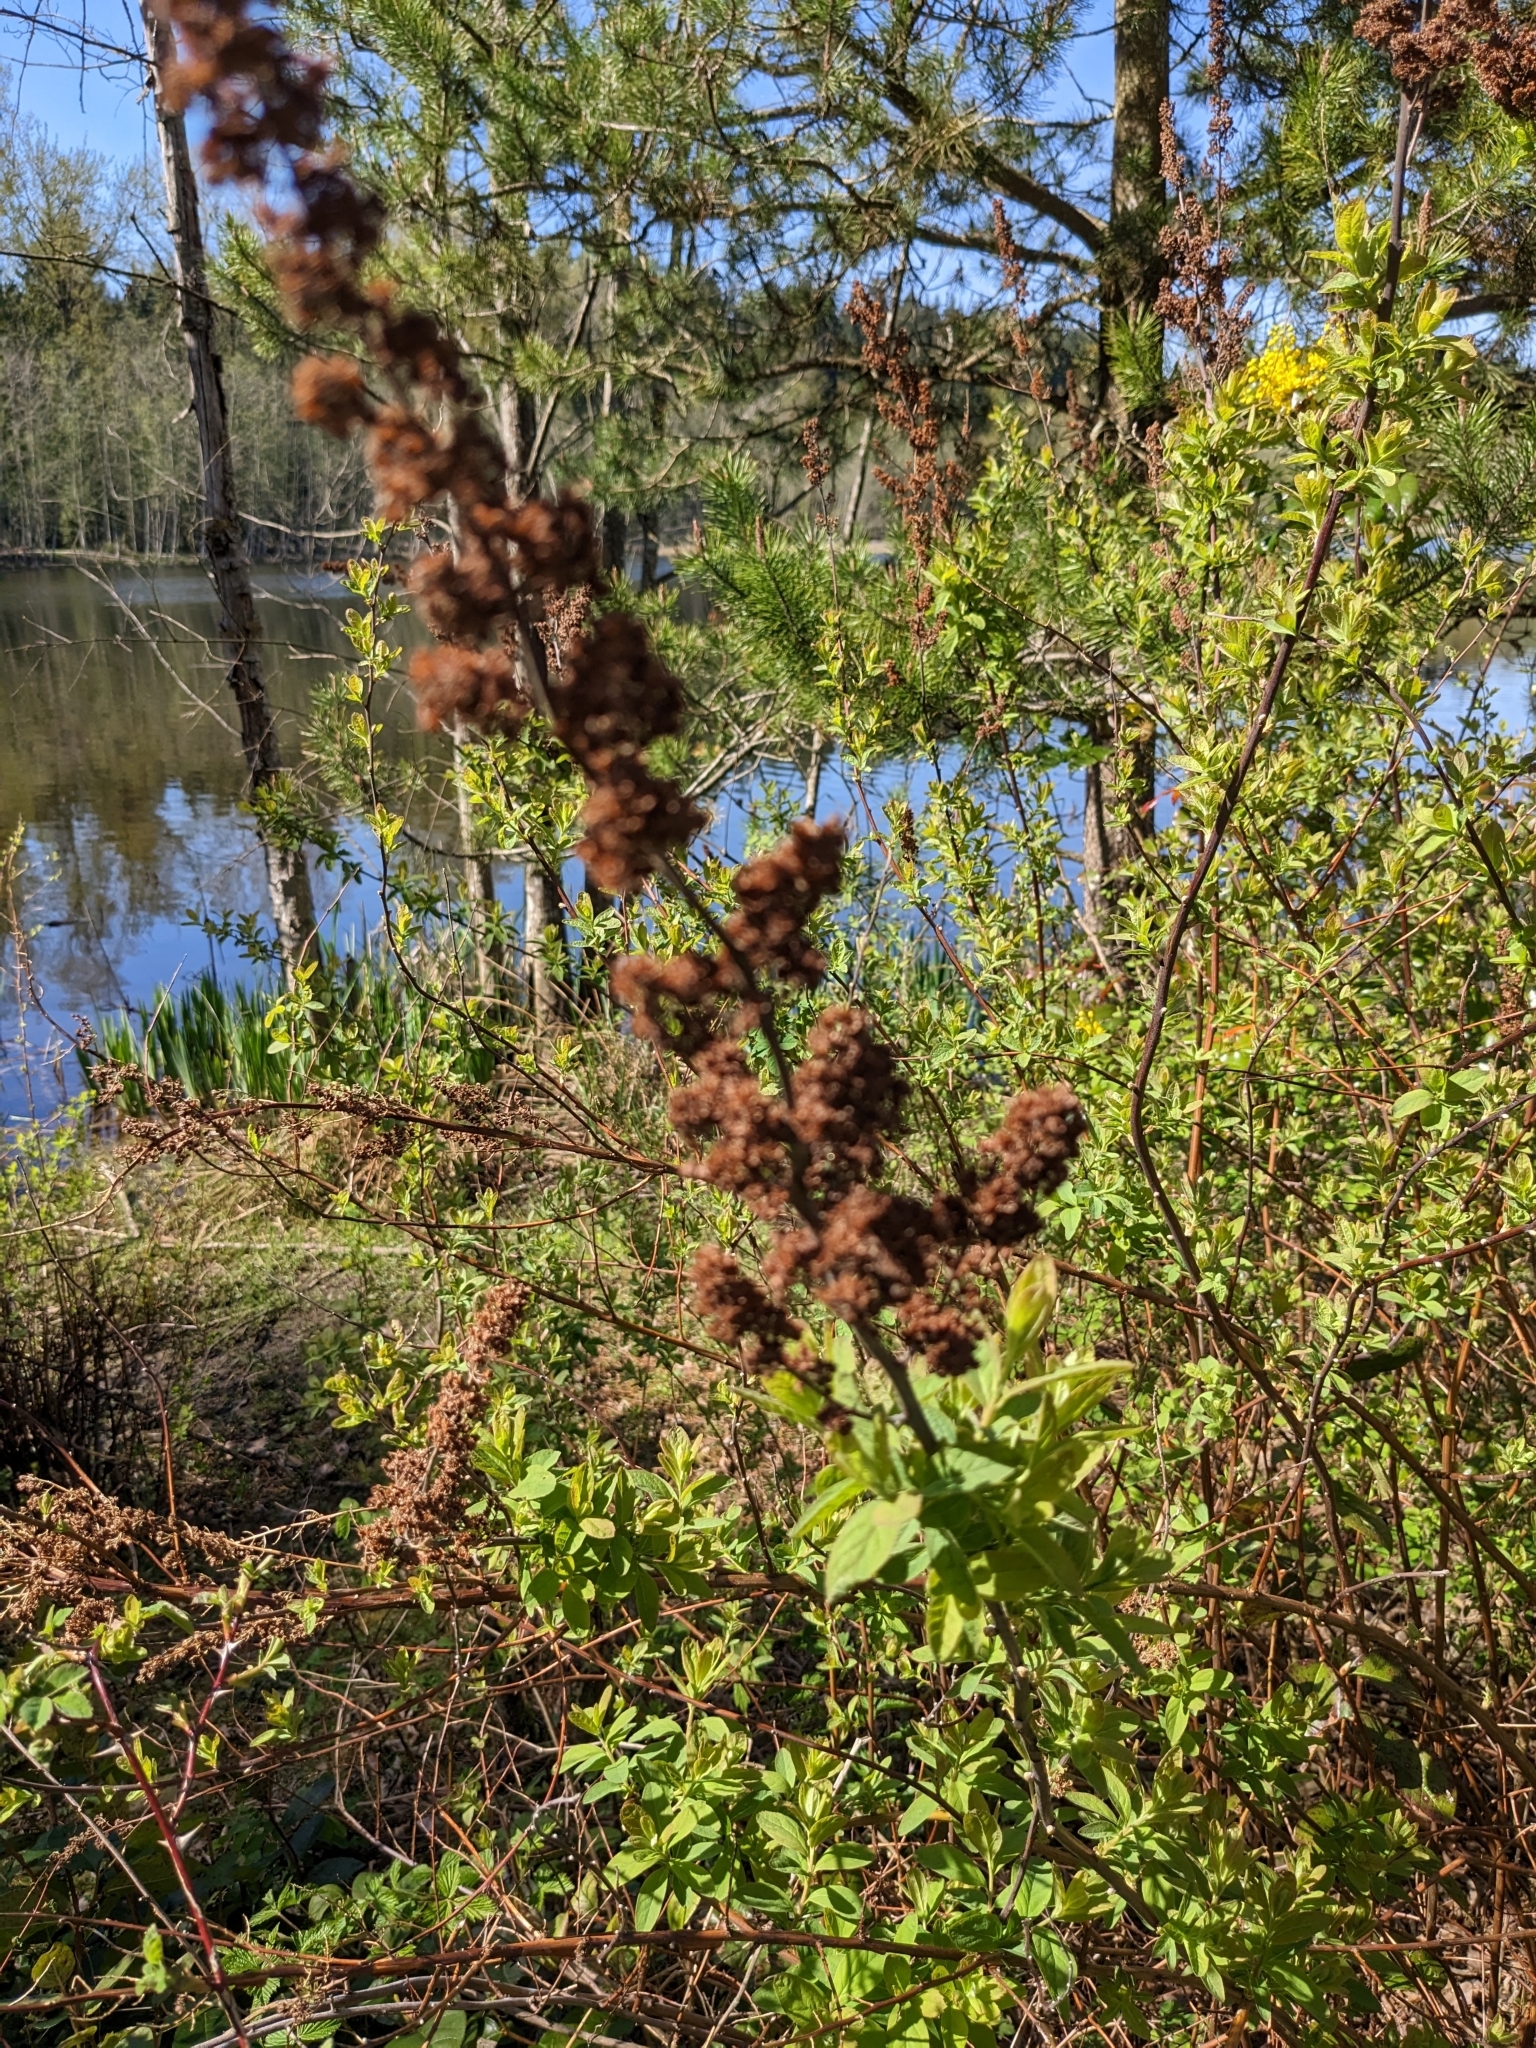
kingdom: Plantae
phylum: Tracheophyta
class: Magnoliopsida
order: Rosales
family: Rosaceae
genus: Spiraea
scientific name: Spiraea douglasii
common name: Steeplebush
